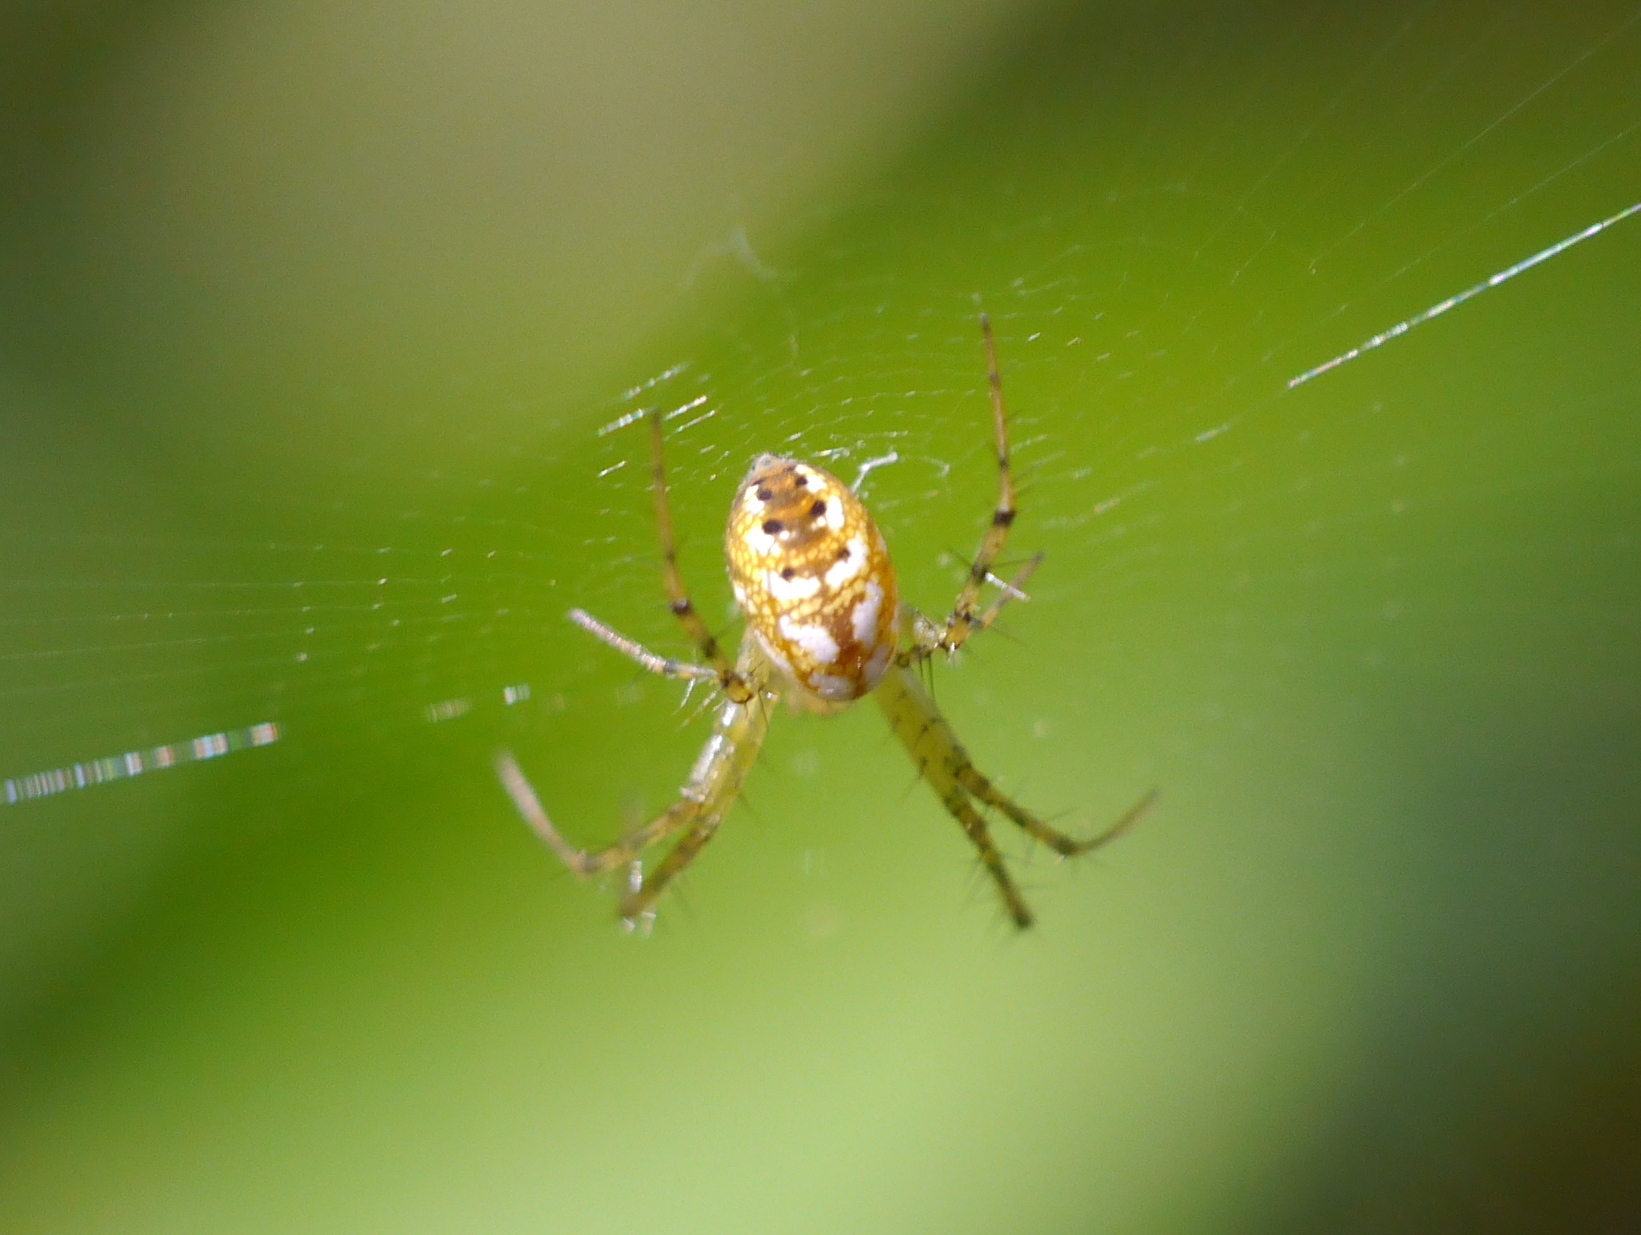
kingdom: Animalia
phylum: Arthropoda
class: Arachnida
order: Araneae
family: Araneidae
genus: Mangora
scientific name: Mangora spiculata
